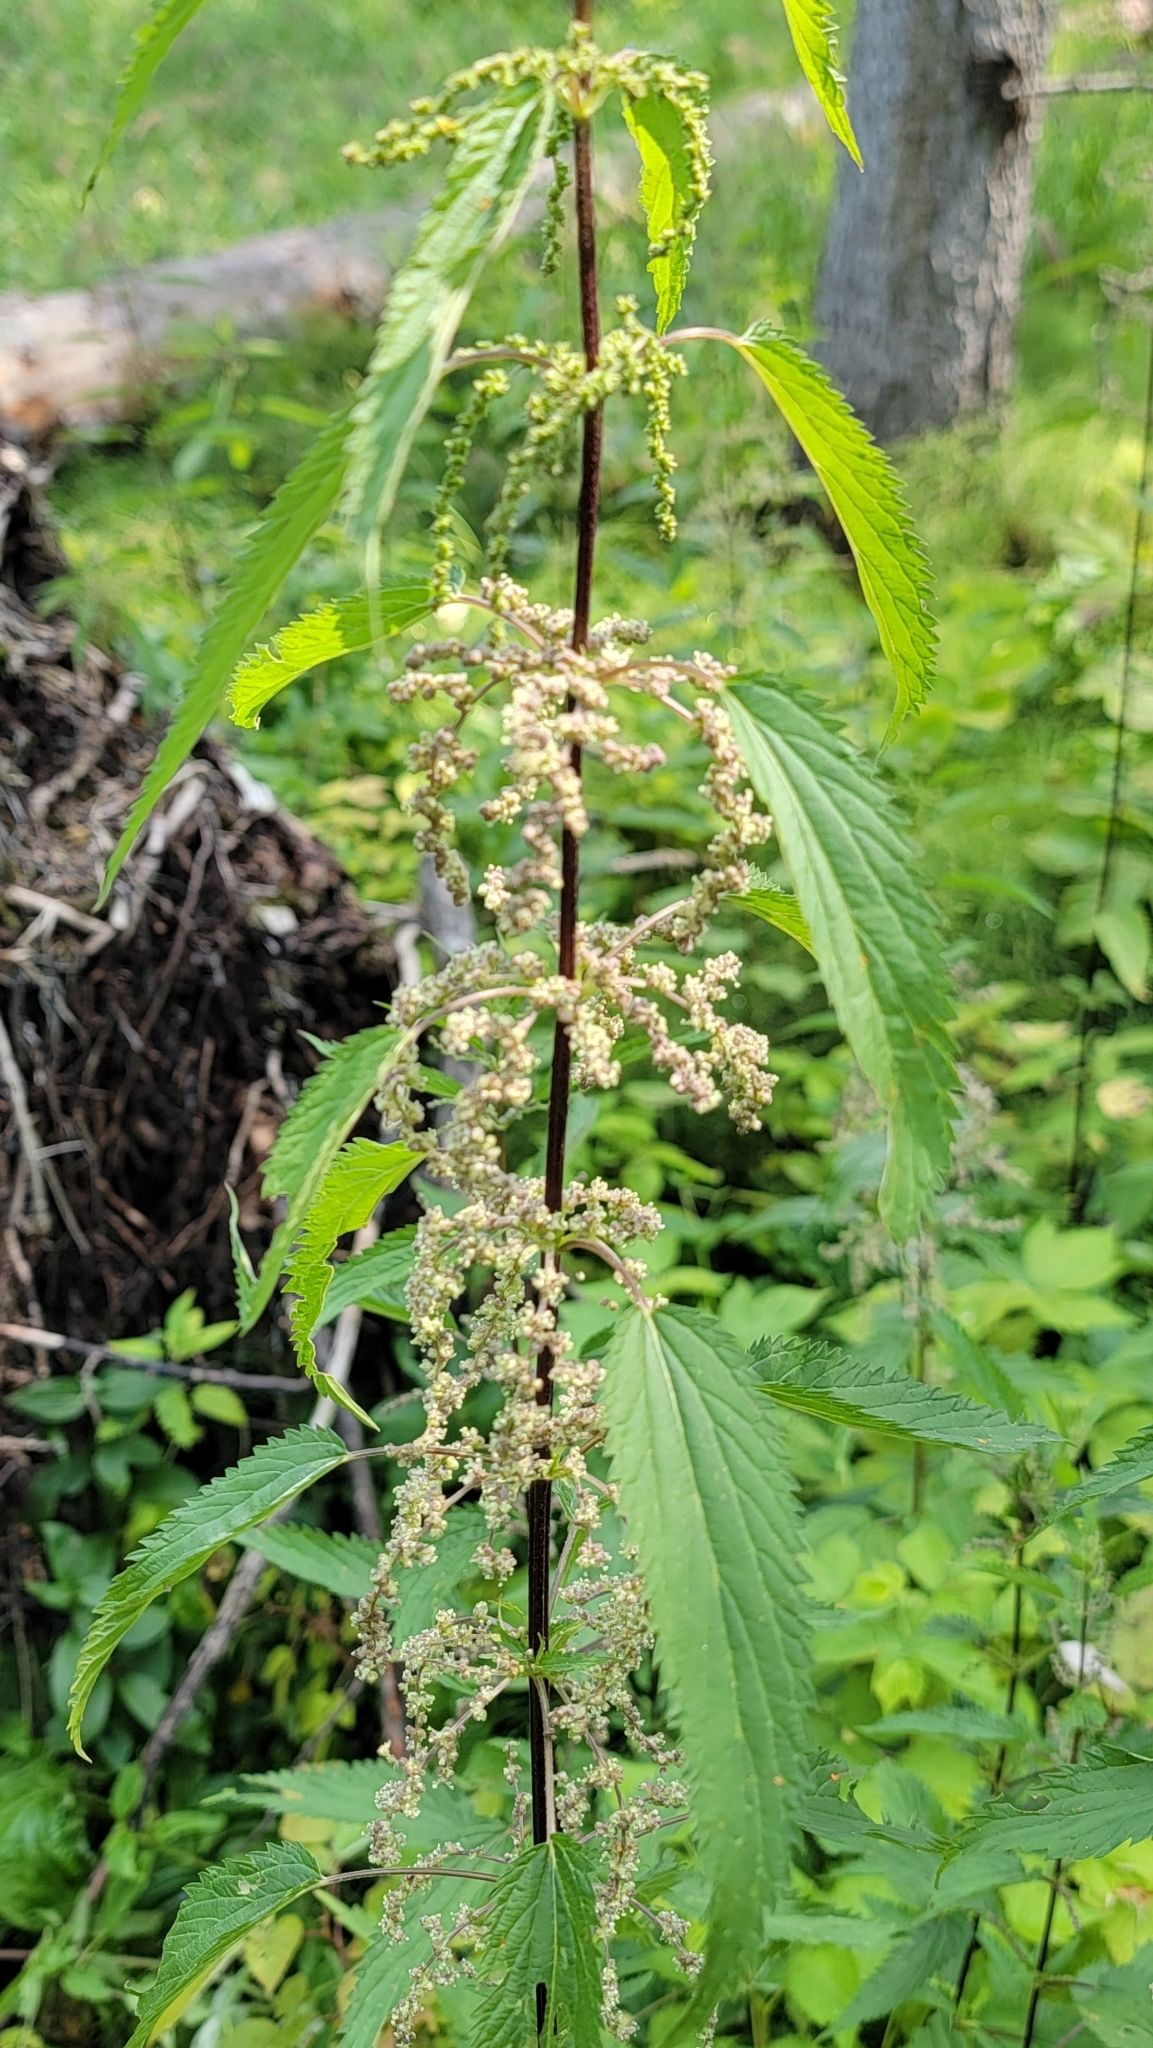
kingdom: Plantae
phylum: Tracheophyta
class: Magnoliopsida
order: Rosales
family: Urticaceae
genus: Urtica
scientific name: Urtica gracilis
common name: Slender stinging nettle
